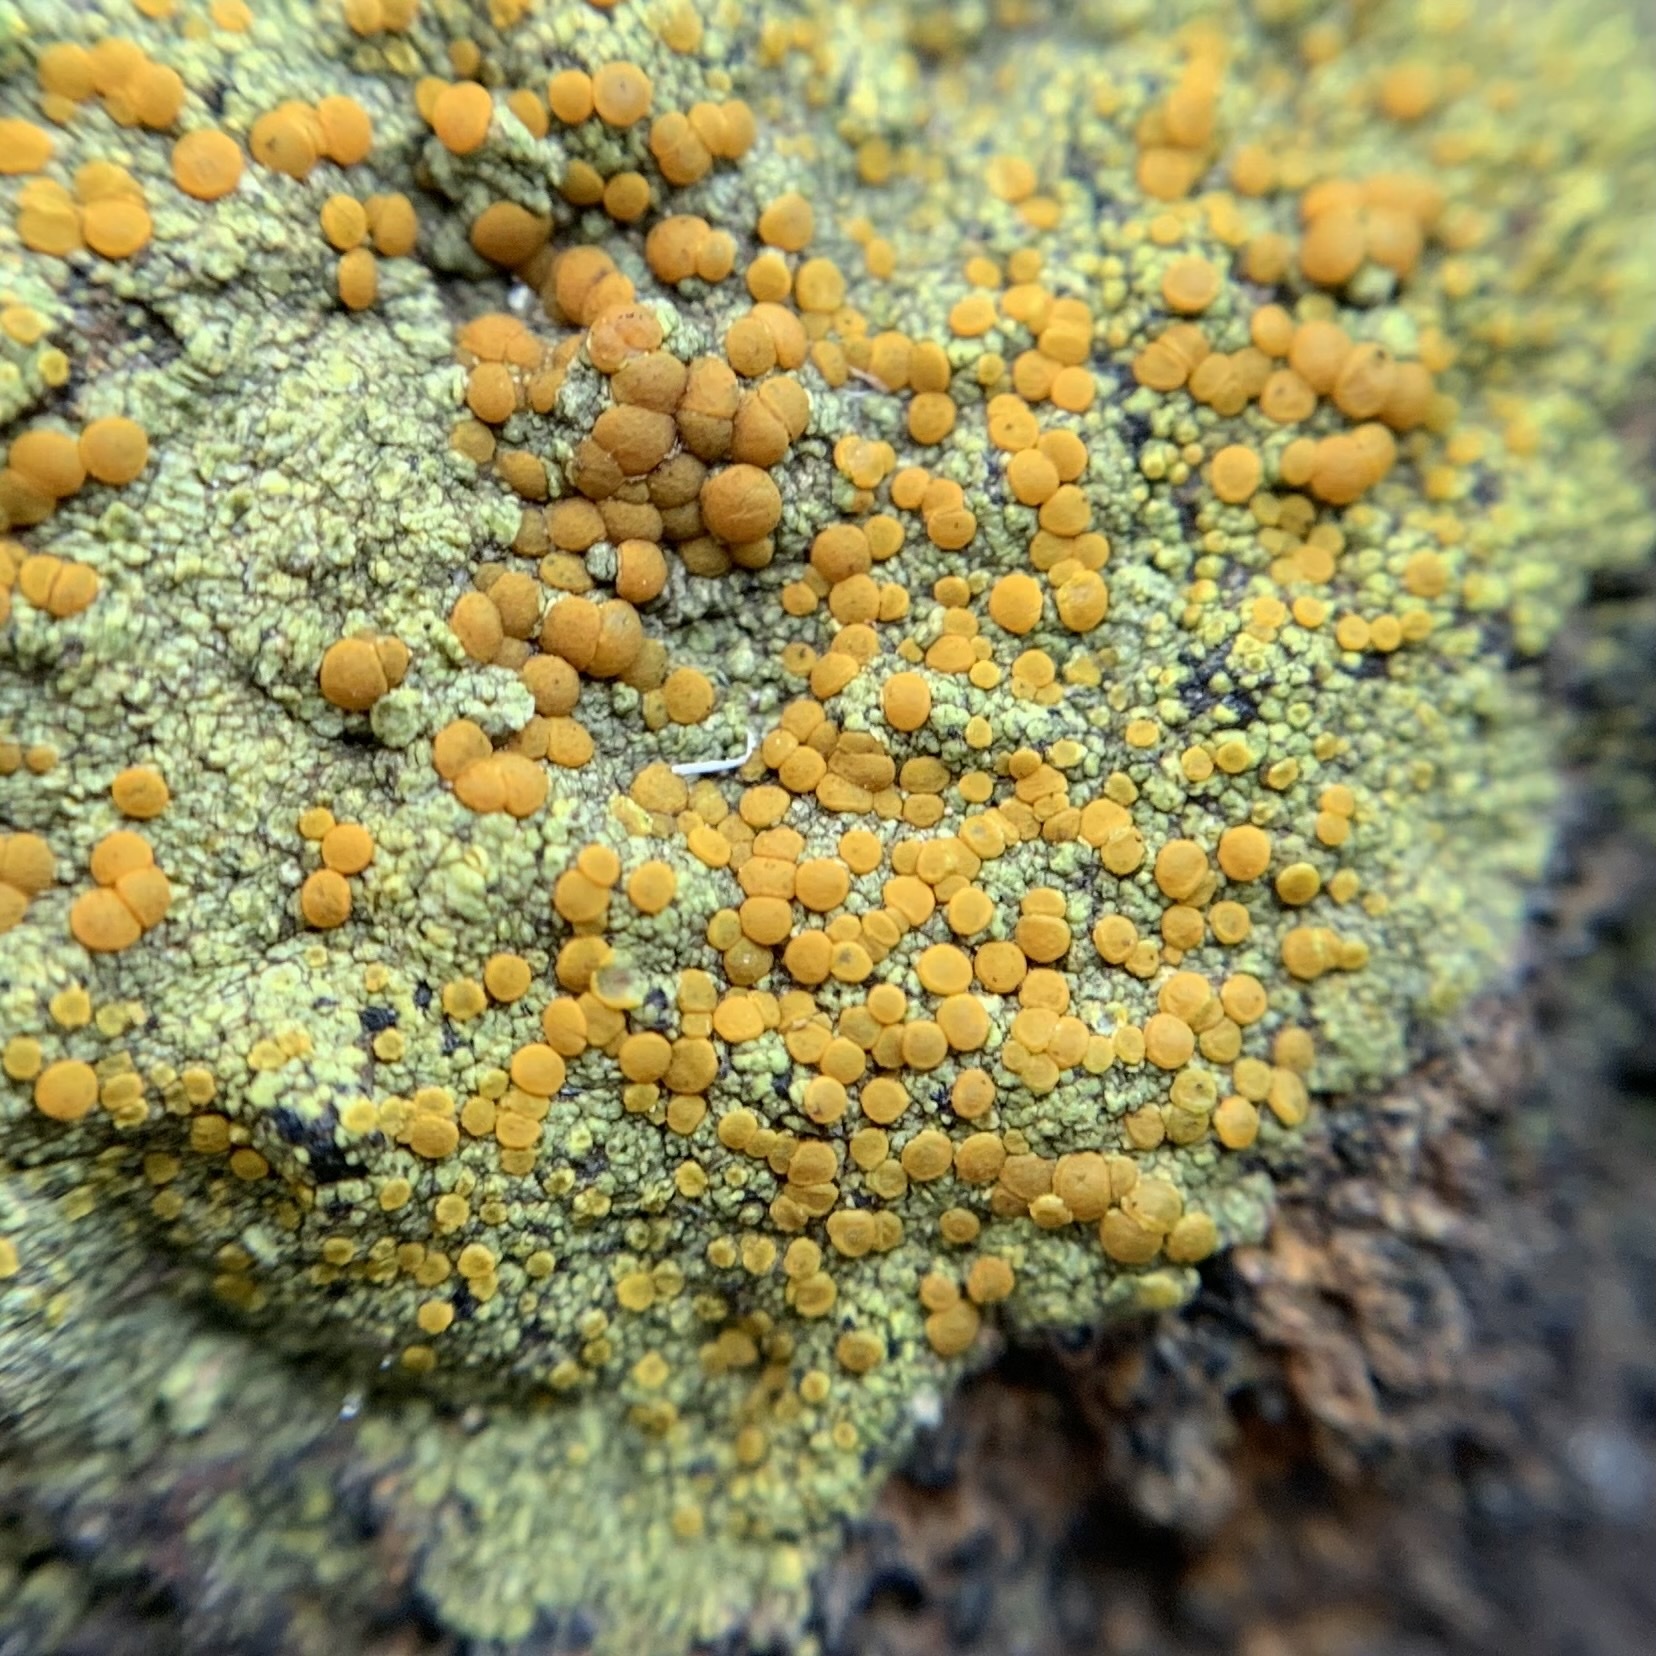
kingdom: Fungi
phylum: Ascomycota
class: Lecanoromycetes
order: Teloschistales
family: Teloschistaceae
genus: Gyalolechia
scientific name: Gyalolechia flavovirescens
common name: Sulphur firedot
